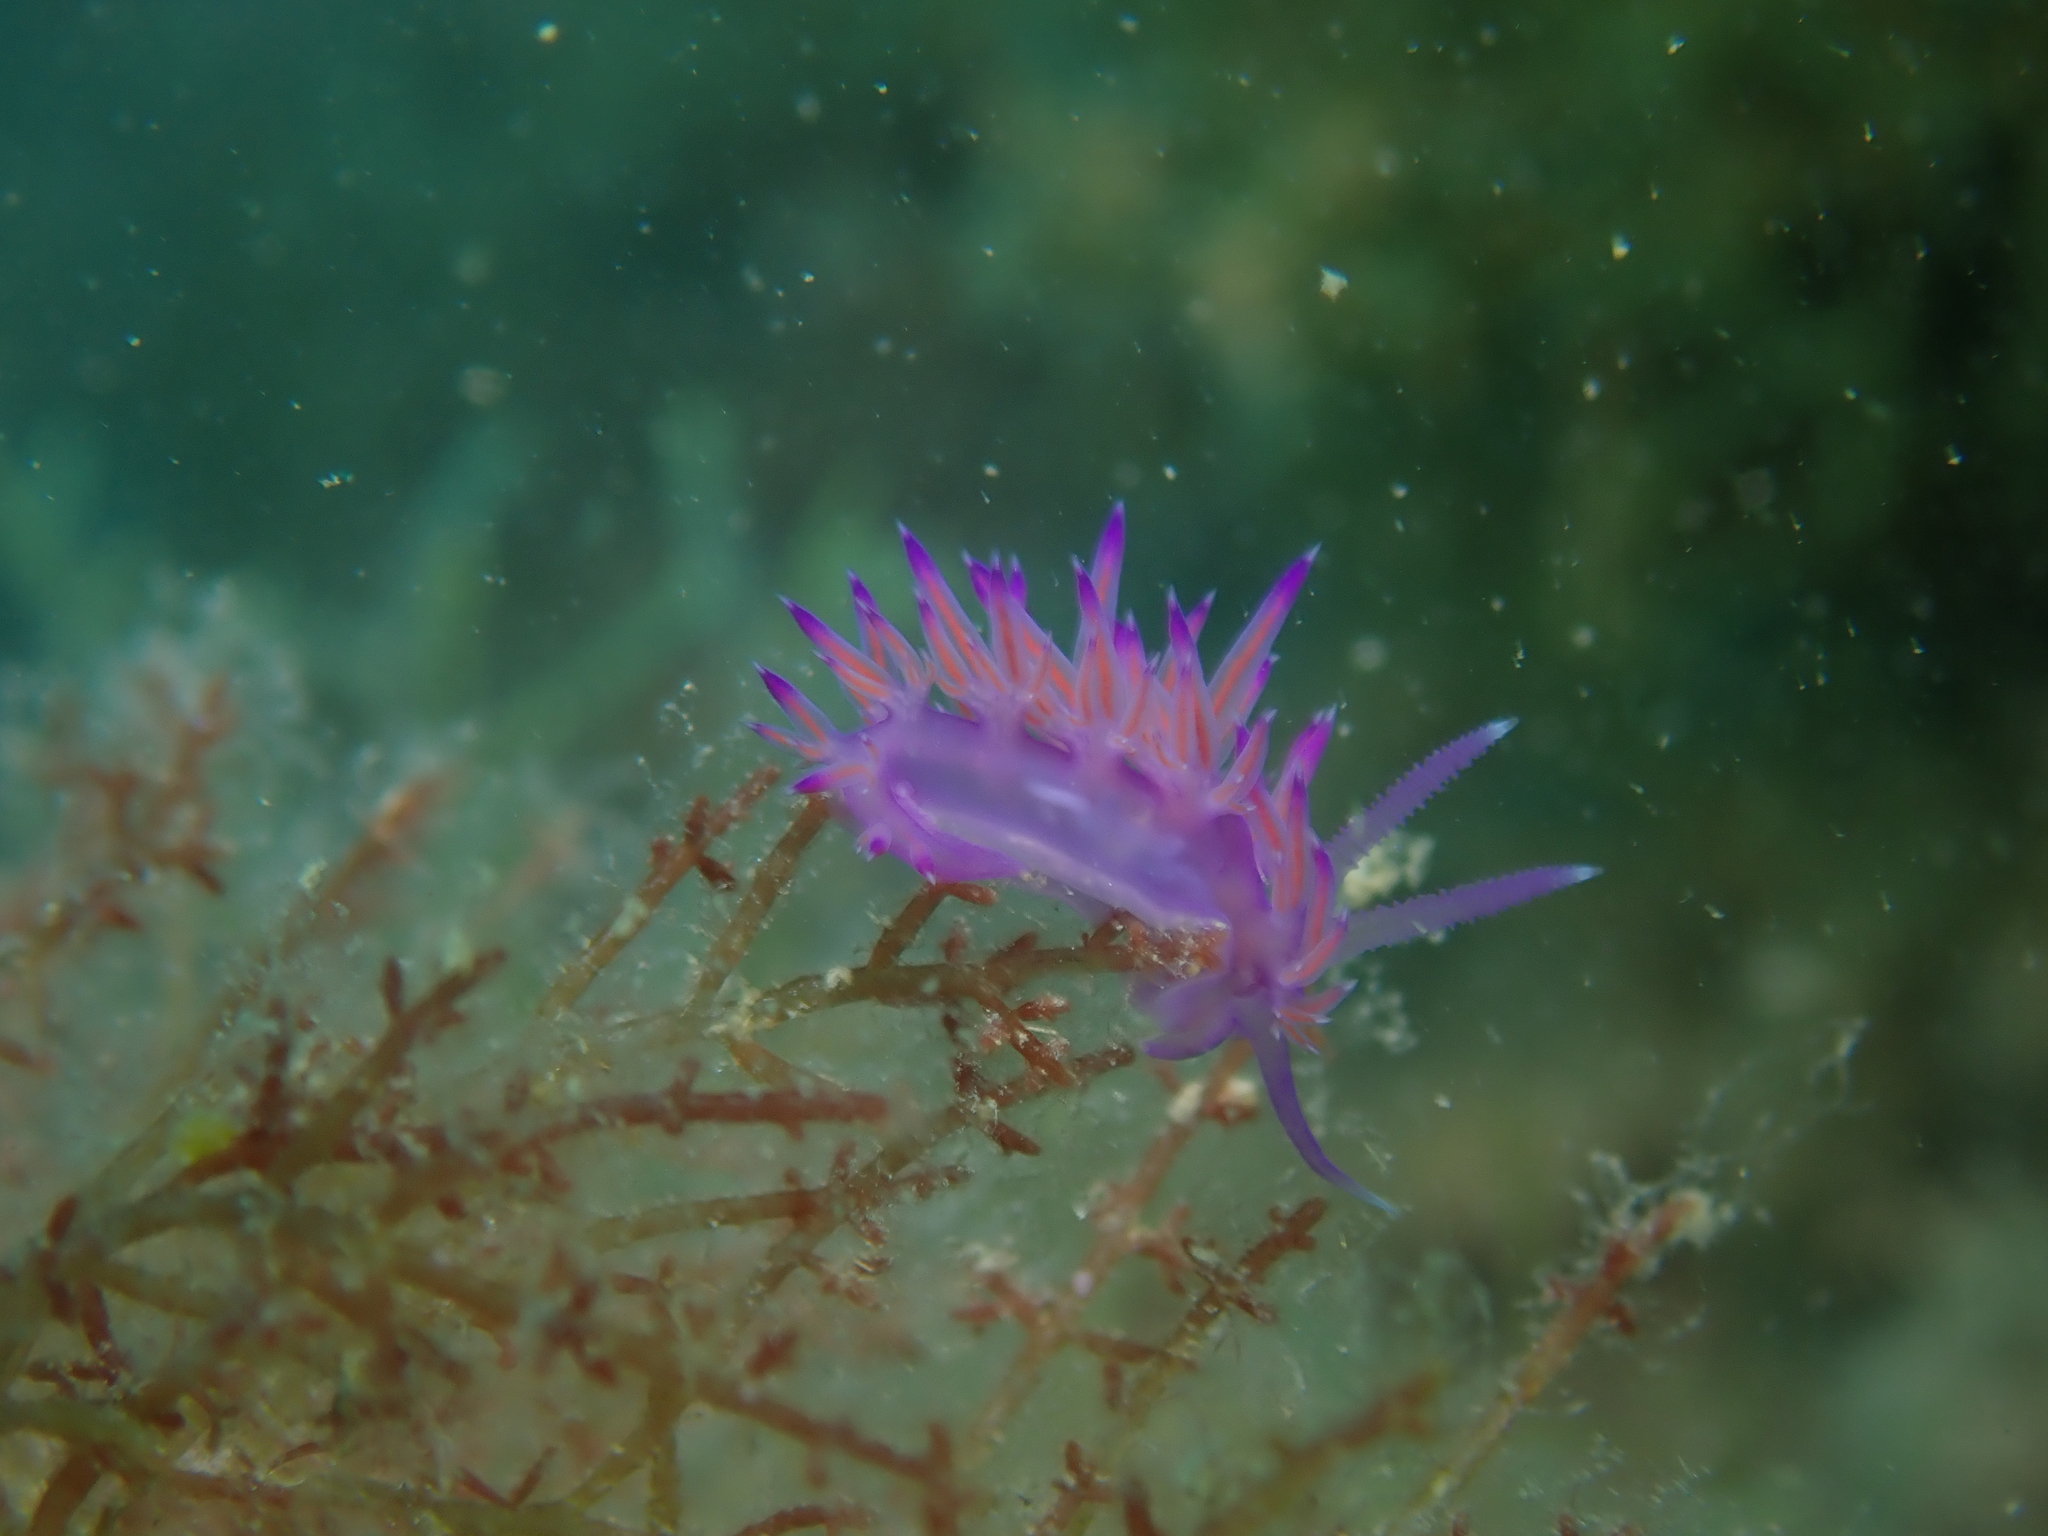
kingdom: Animalia
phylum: Mollusca
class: Gastropoda
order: Nudibranchia
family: Flabellinidae
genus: Flabellina
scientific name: Flabellina affinis
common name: Mediterranean violet aeolid
